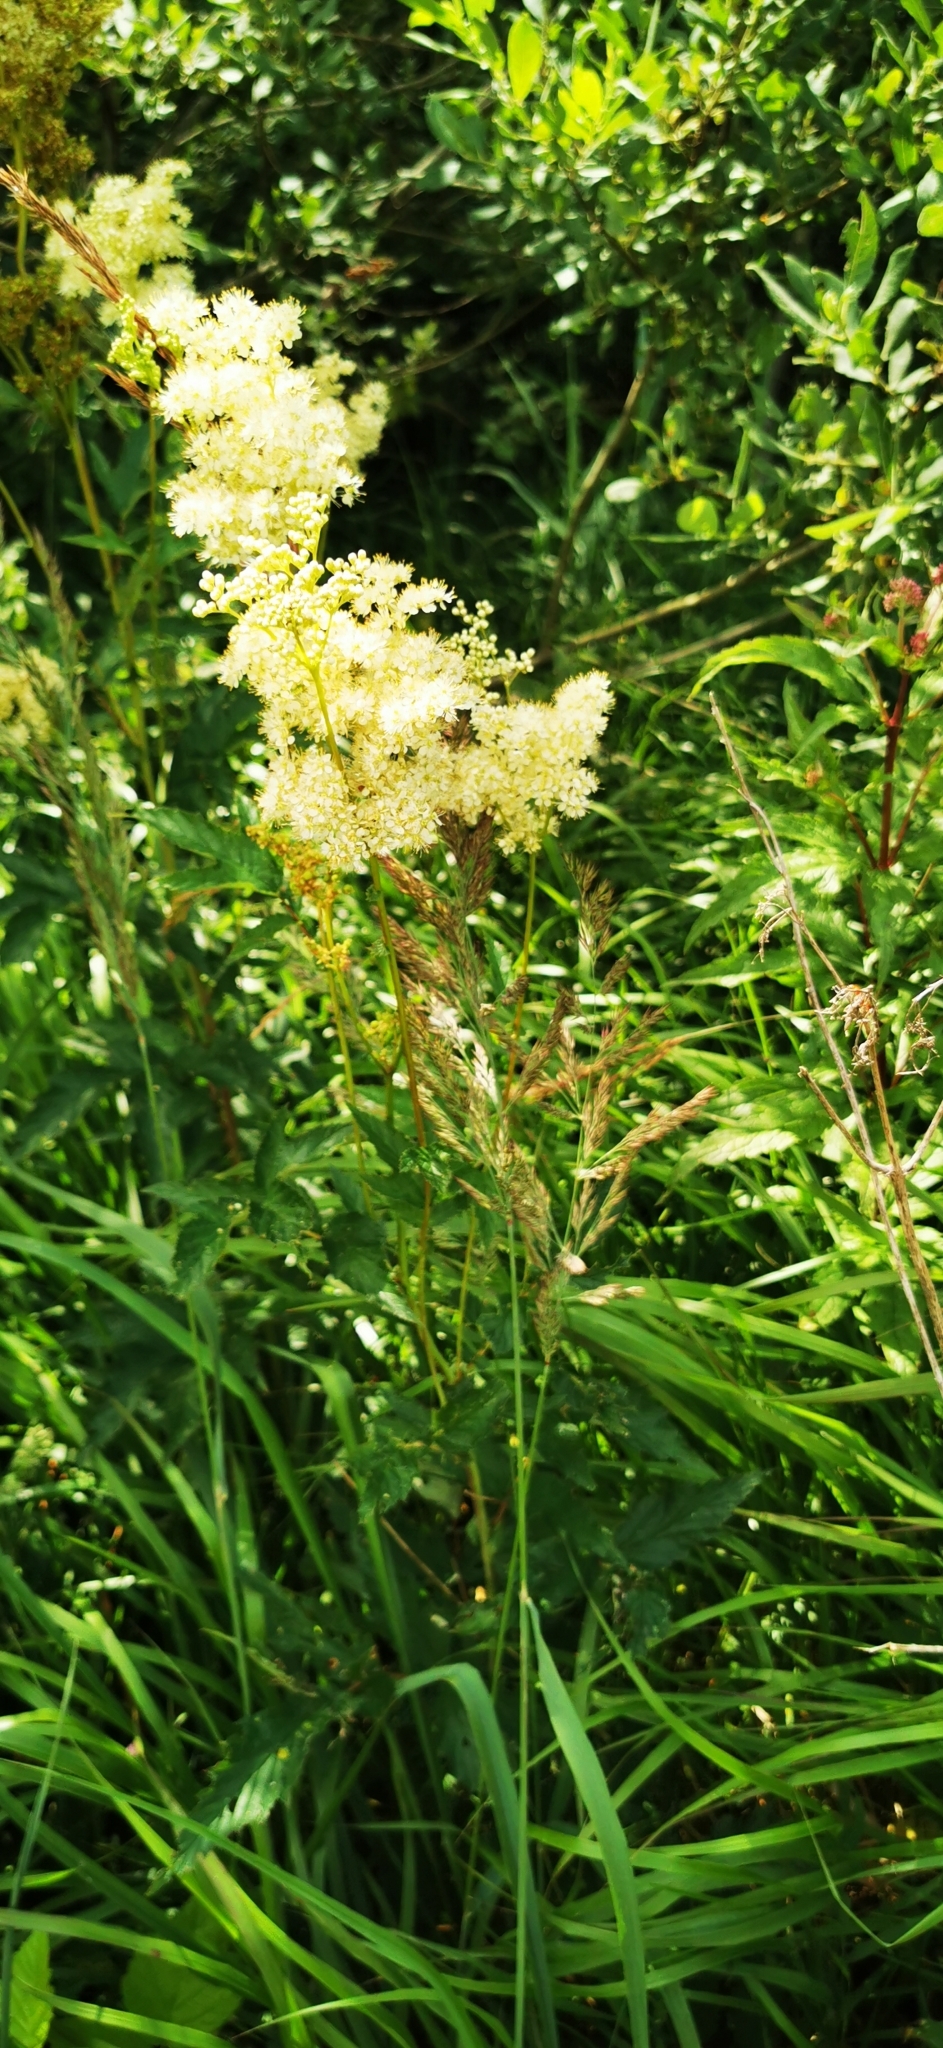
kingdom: Plantae
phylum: Tracheophyta
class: Magnoliopsida
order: Rosales
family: Rosaceae
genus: Filipendula
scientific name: Filipendula ulmaria
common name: Meadowsweet
